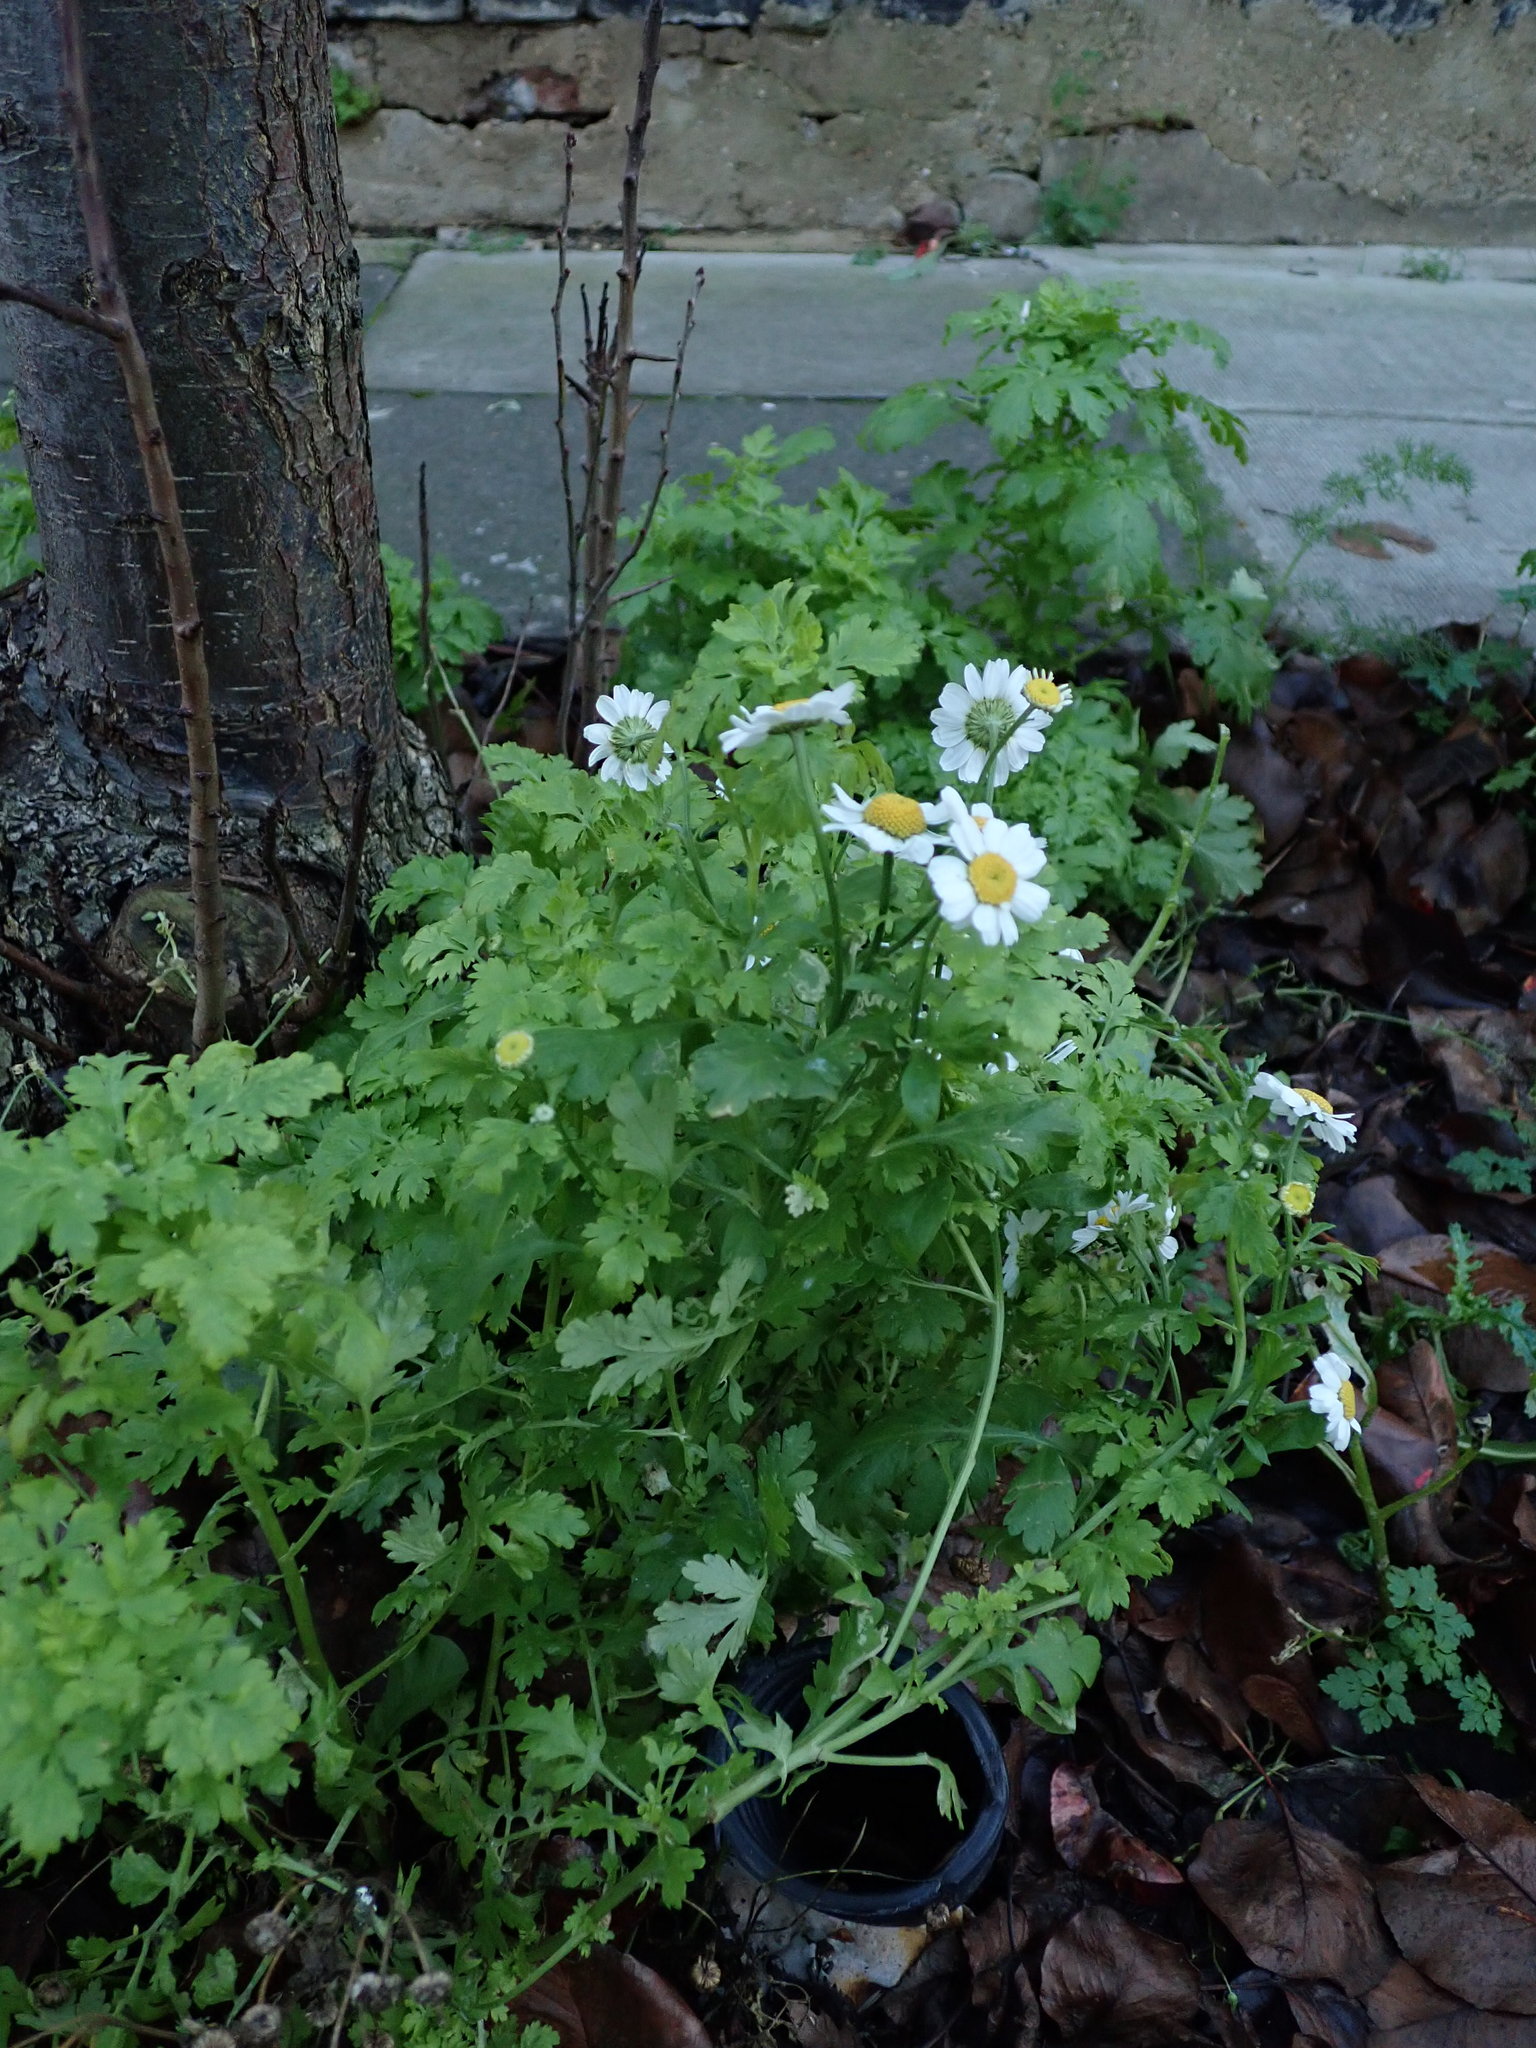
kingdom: Plantae
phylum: Tracheophyta
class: Magnoliopsida
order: Asterales
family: Asteraceae
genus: Tanacetum
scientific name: Tanacetum parthenium
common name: Feverfew
